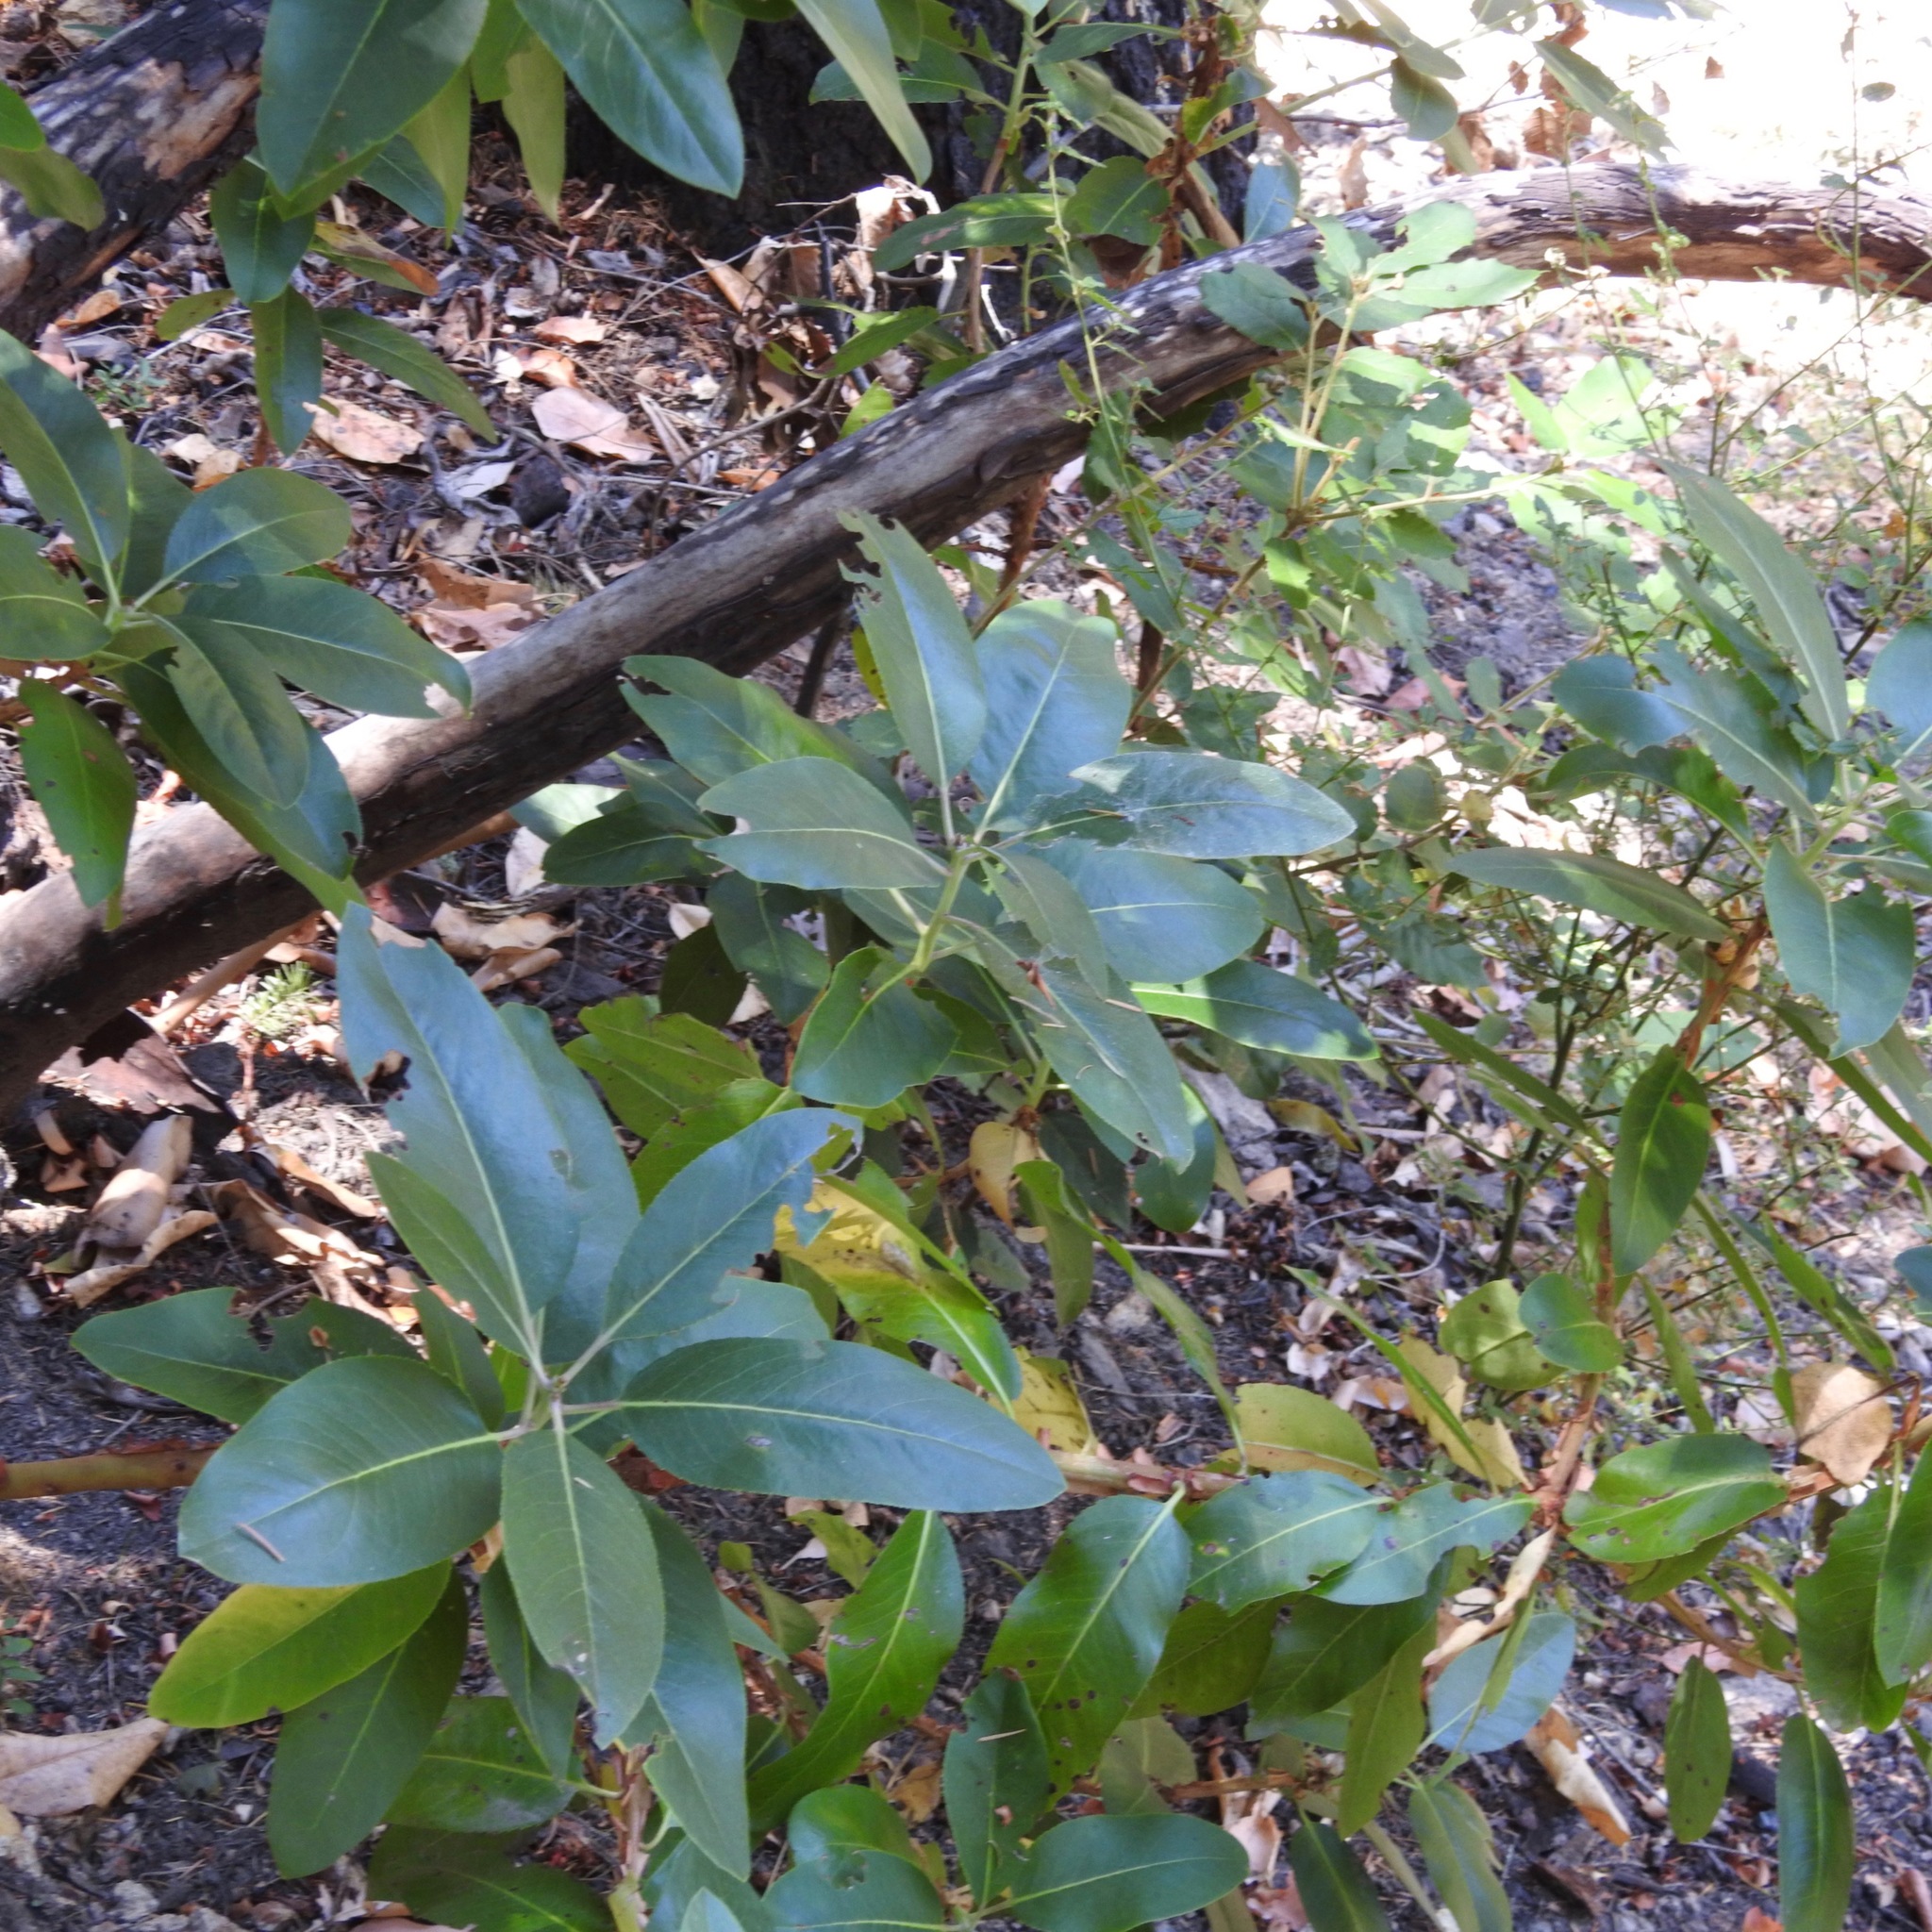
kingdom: Plantae
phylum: Tracheophyta
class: Magnoliopsida
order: Ericales
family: Ericaceae
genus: Arbutus
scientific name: Arbutus menziesii
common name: Pacific madrone
